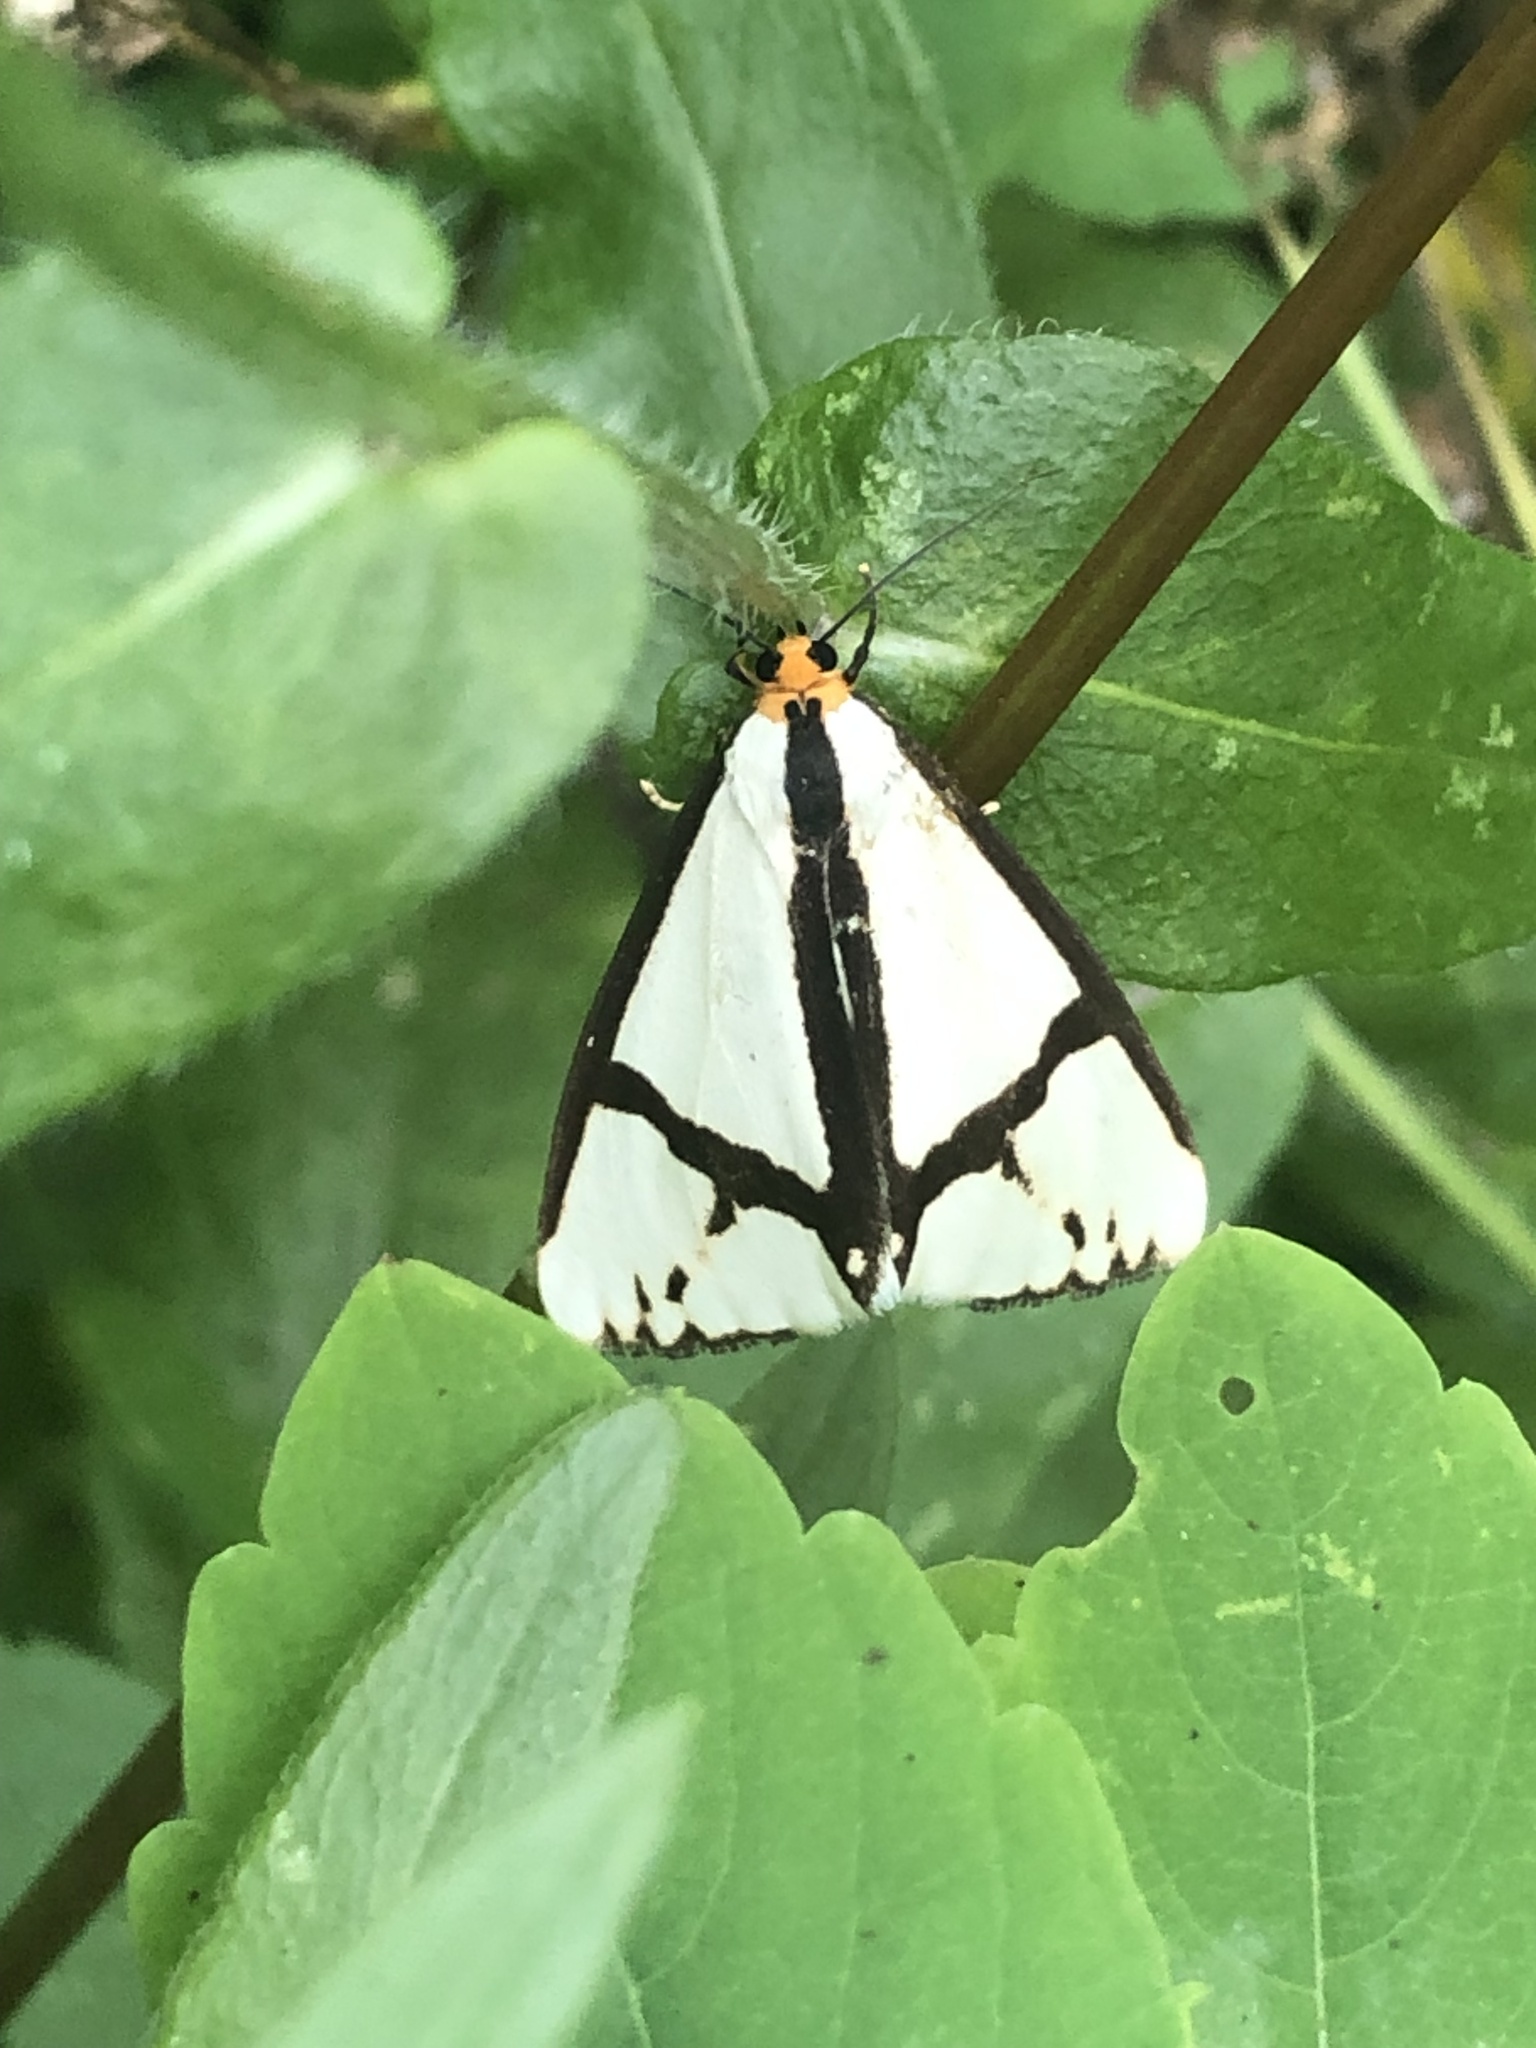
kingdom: Animalia
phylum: Arthropoda
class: Insecta
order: Lepidoptera
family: Erebidae
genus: Haploa
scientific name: Haploa contigua
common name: Neighbor moth
